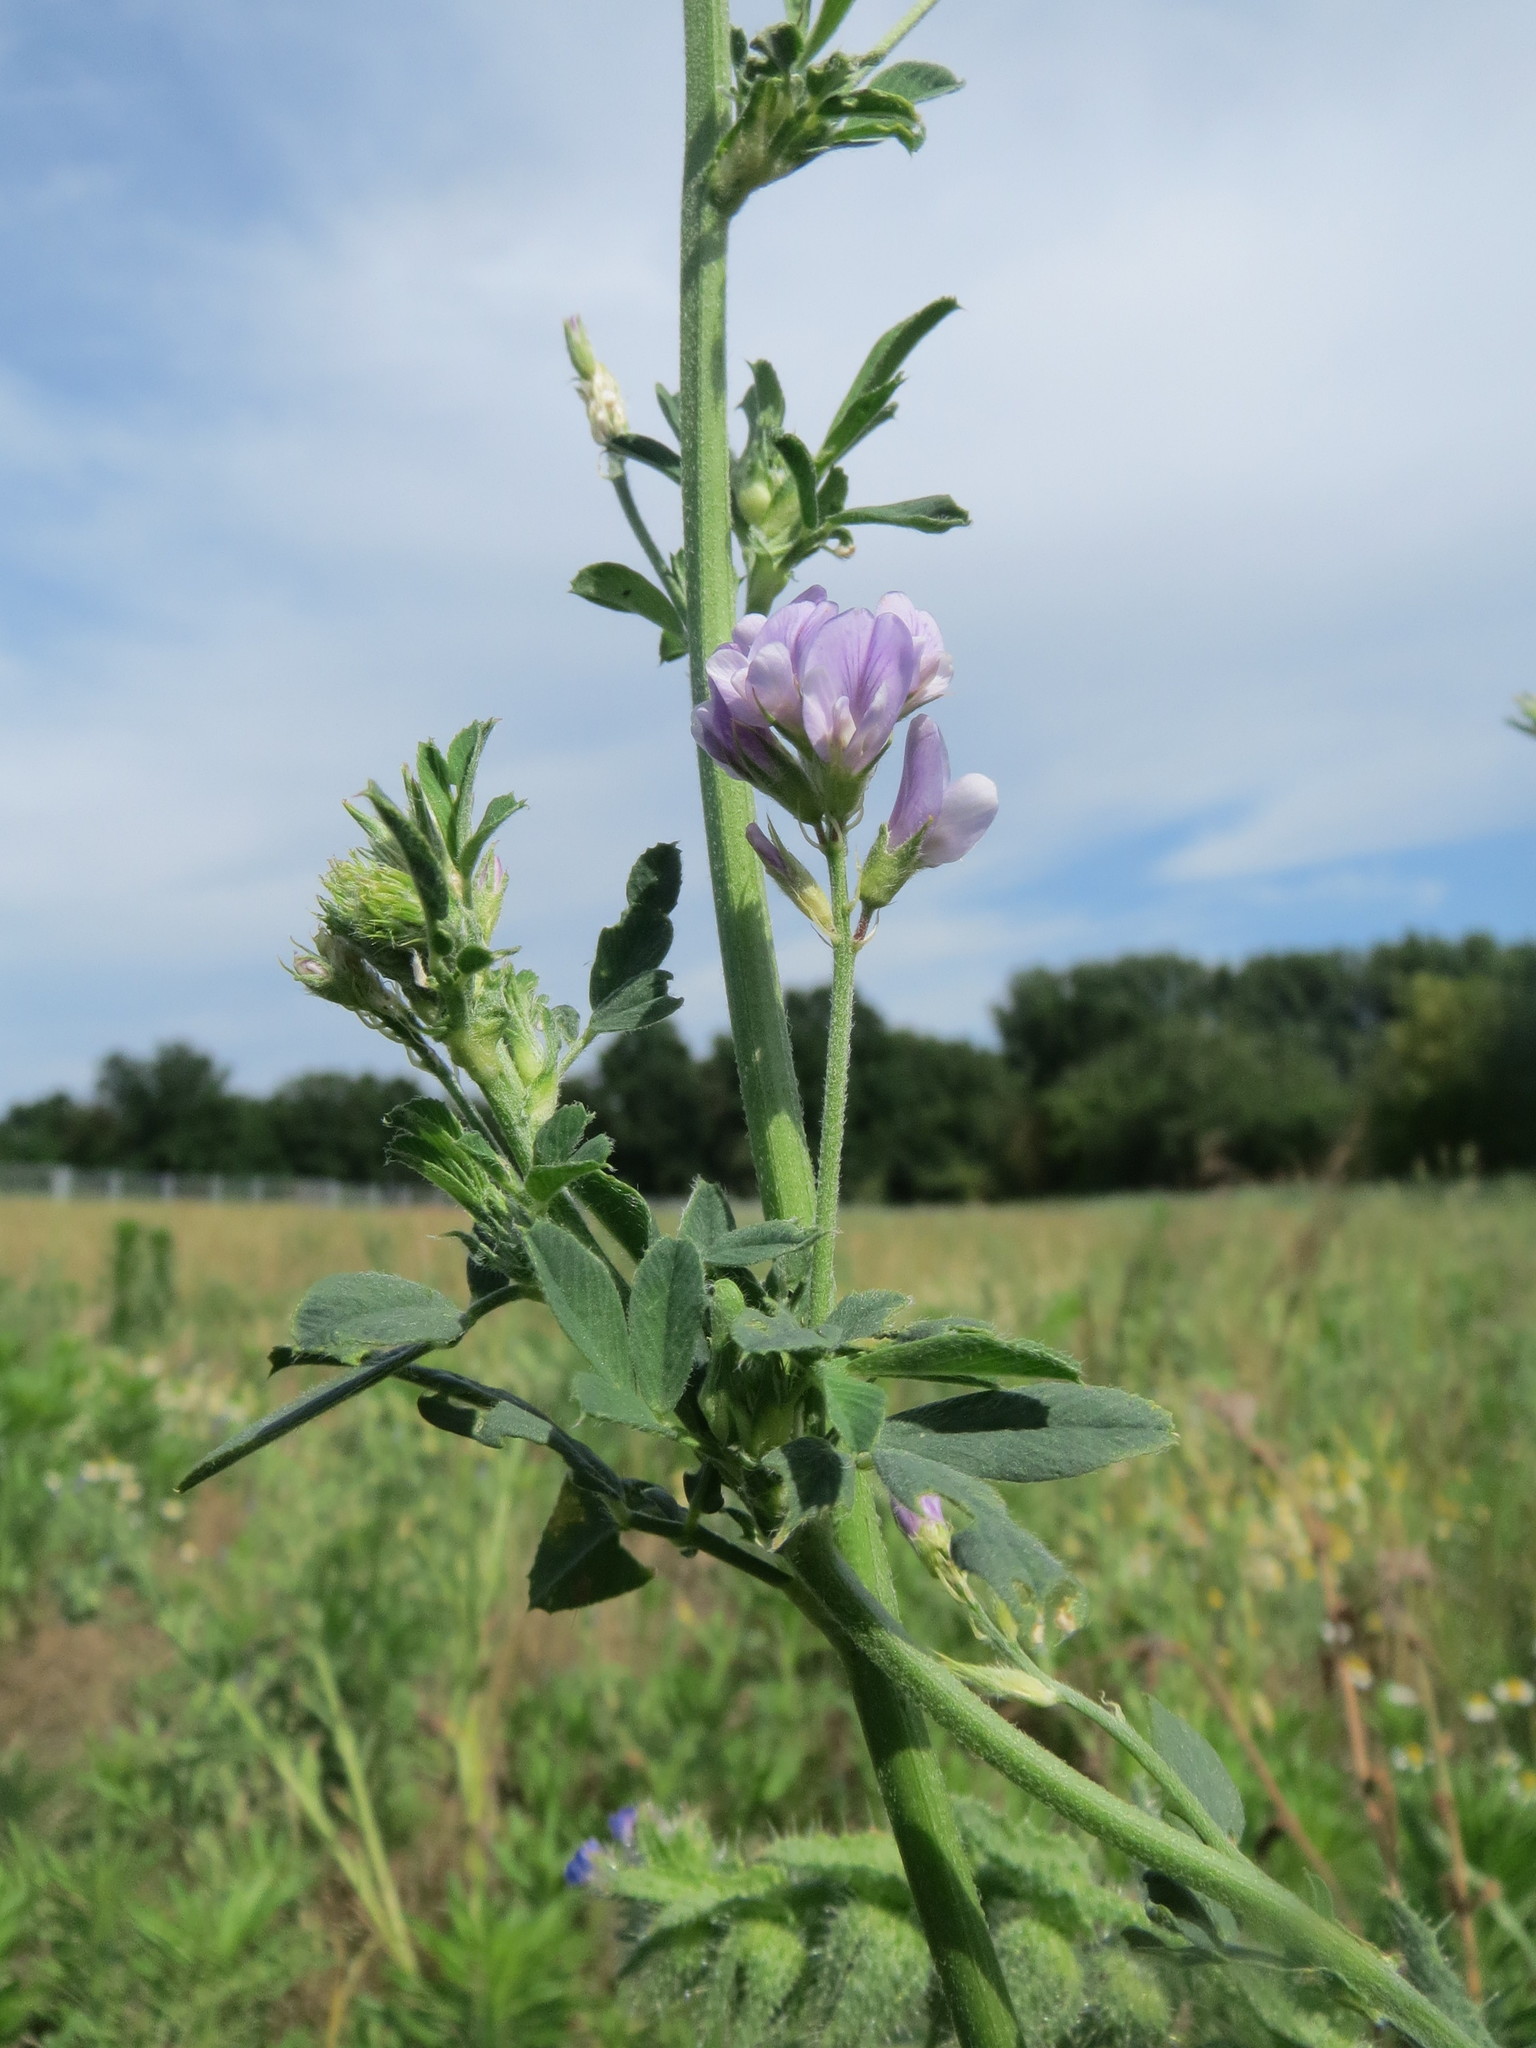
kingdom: Plantae
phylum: Tracheophyta
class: Magnoliopsida
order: Fabales
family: Fabaceae
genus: Medicago
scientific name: Medicago sativa
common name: Alfalfa
